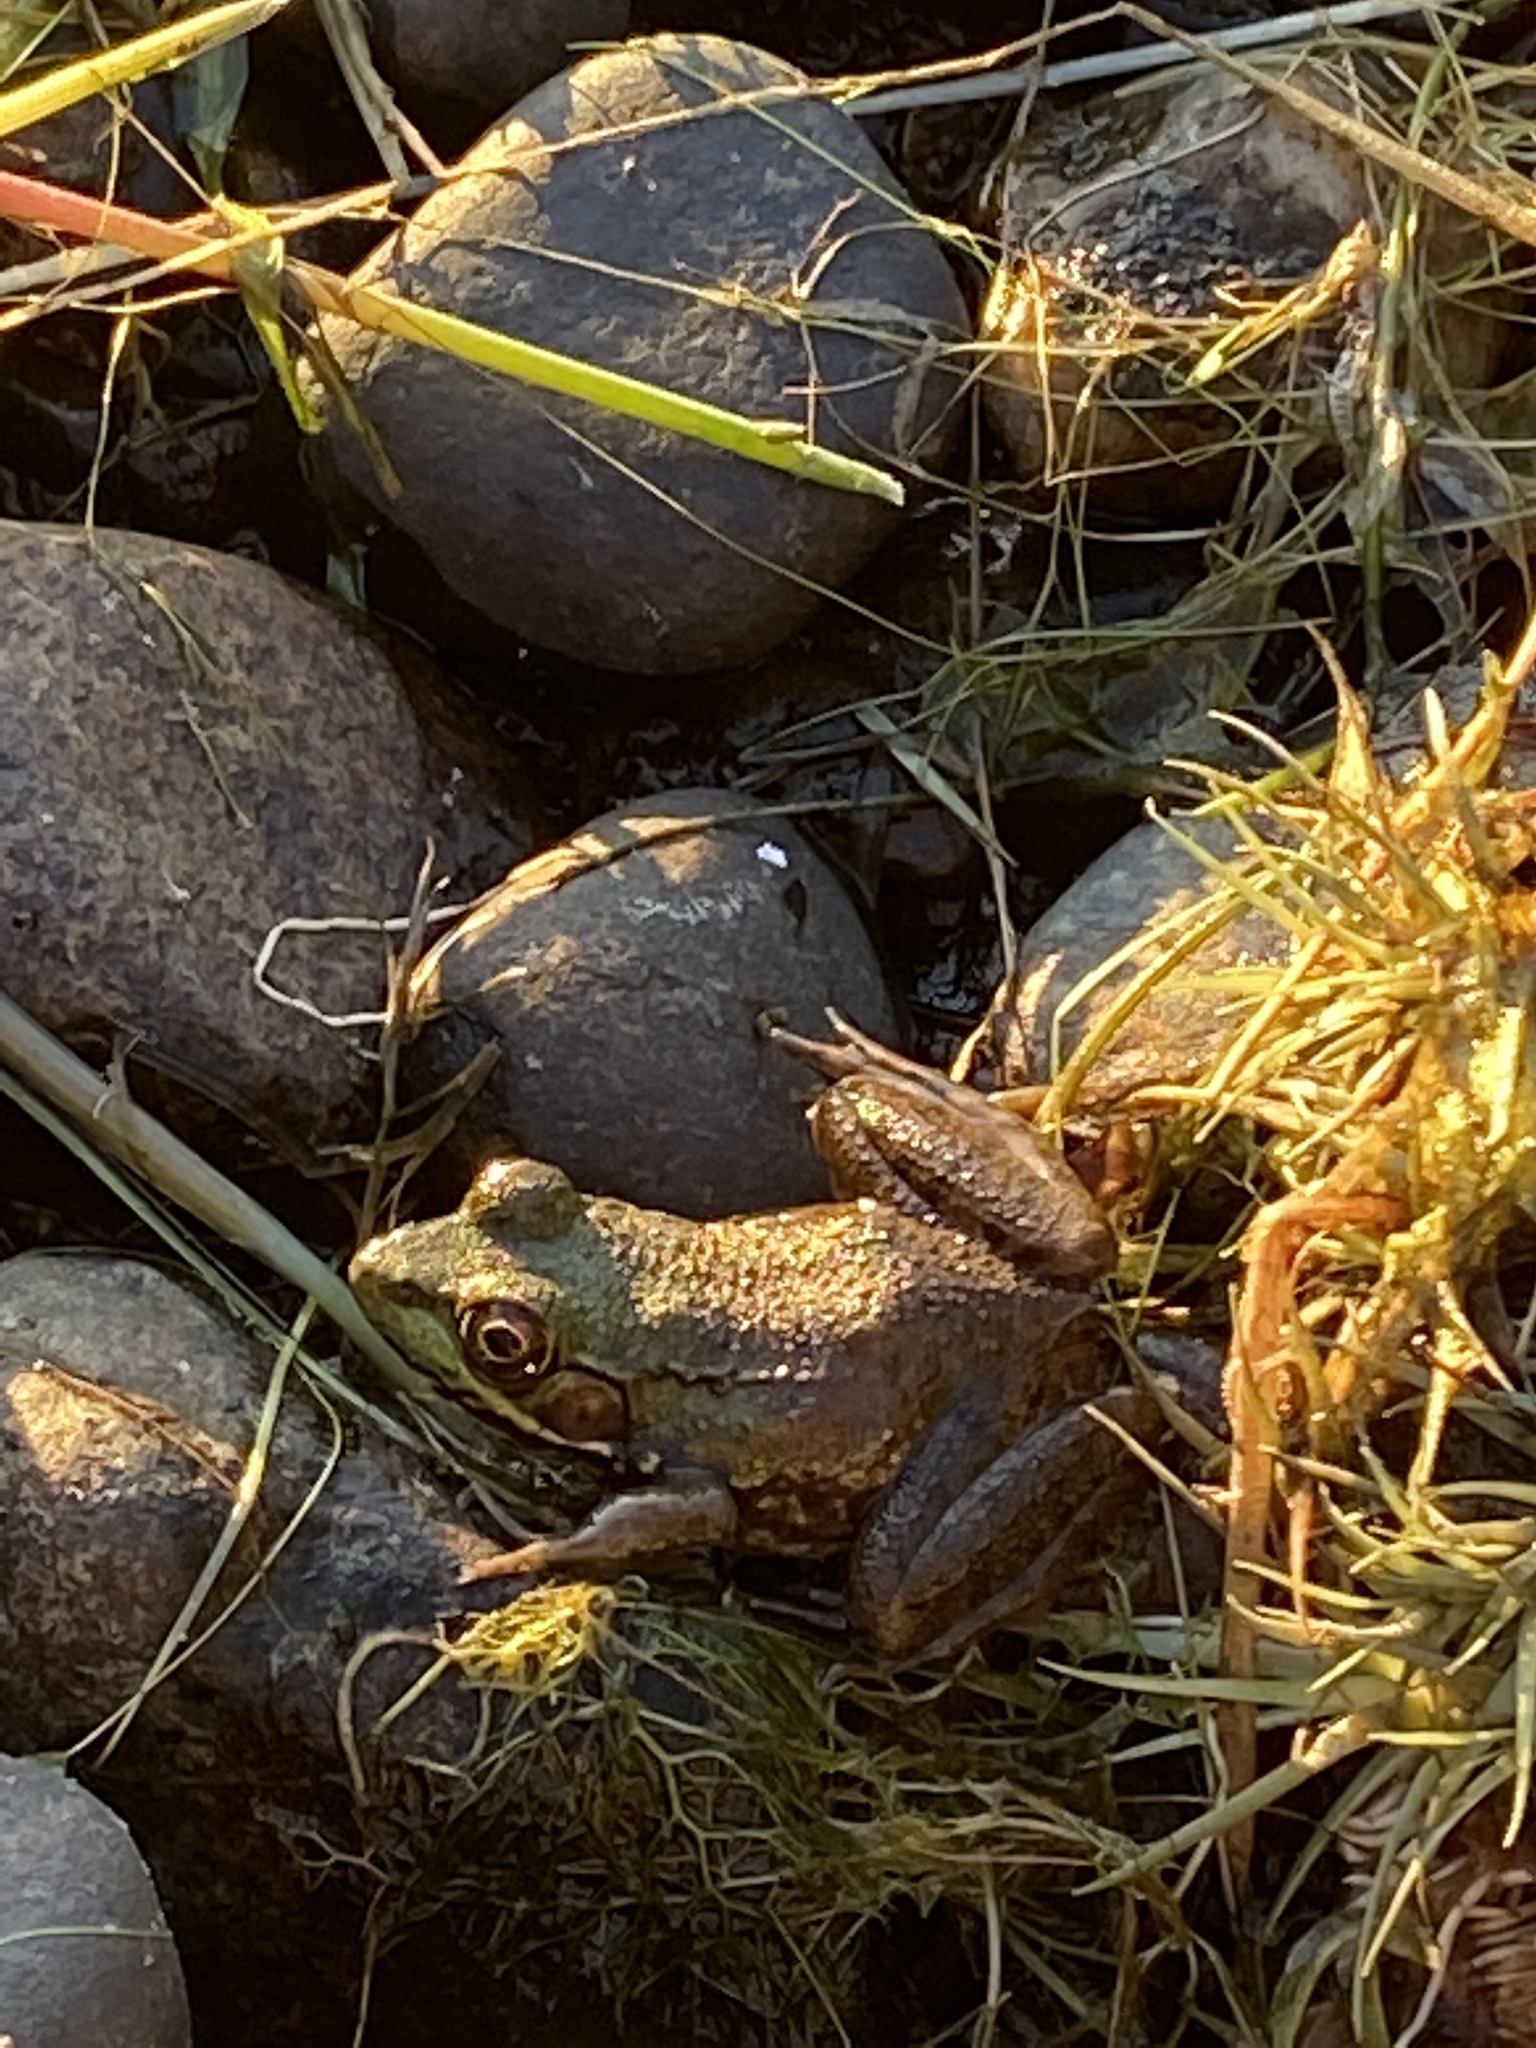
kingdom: Animalia
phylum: Chordata
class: Amphibia
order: Anura
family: Ranidae
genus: Lithobates
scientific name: Lithobates clamitans
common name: Green frog
